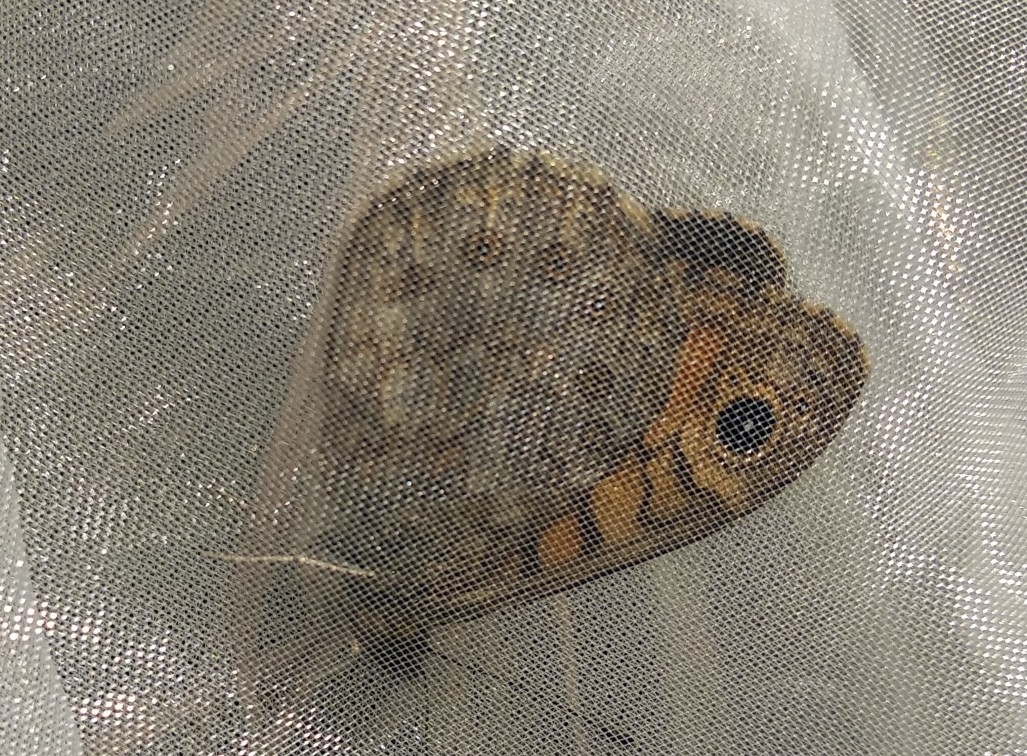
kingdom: Animalia
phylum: Arthropoda
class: Insecta
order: Lepidoptera
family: Nymphalidae
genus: Pararge
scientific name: Pararge Lasiommata megera
